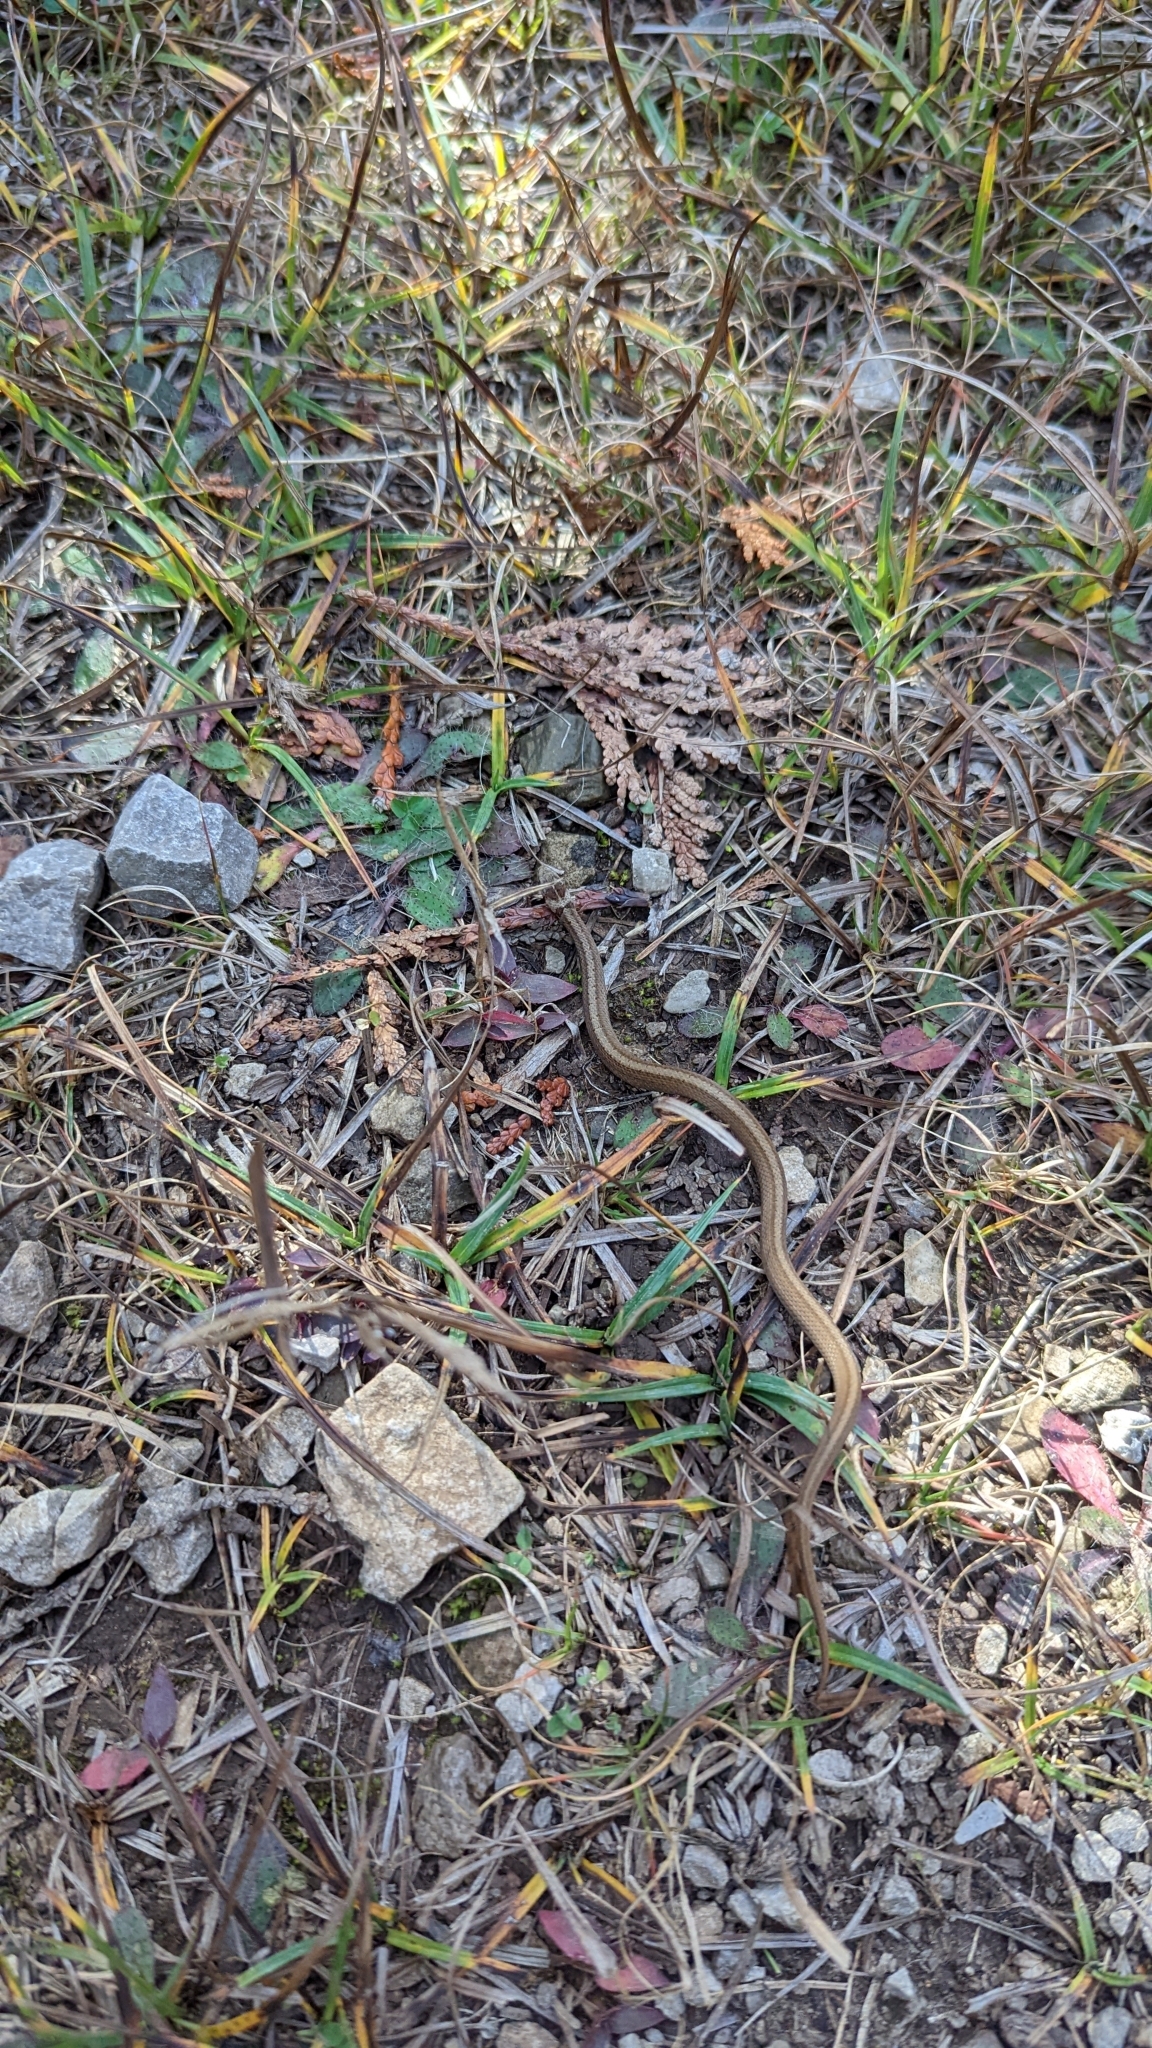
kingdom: Animalia
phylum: Chordata
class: Squamata
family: Colubridae
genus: Storeria
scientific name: Storeria dekayi
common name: (dekay’s) brown snake
